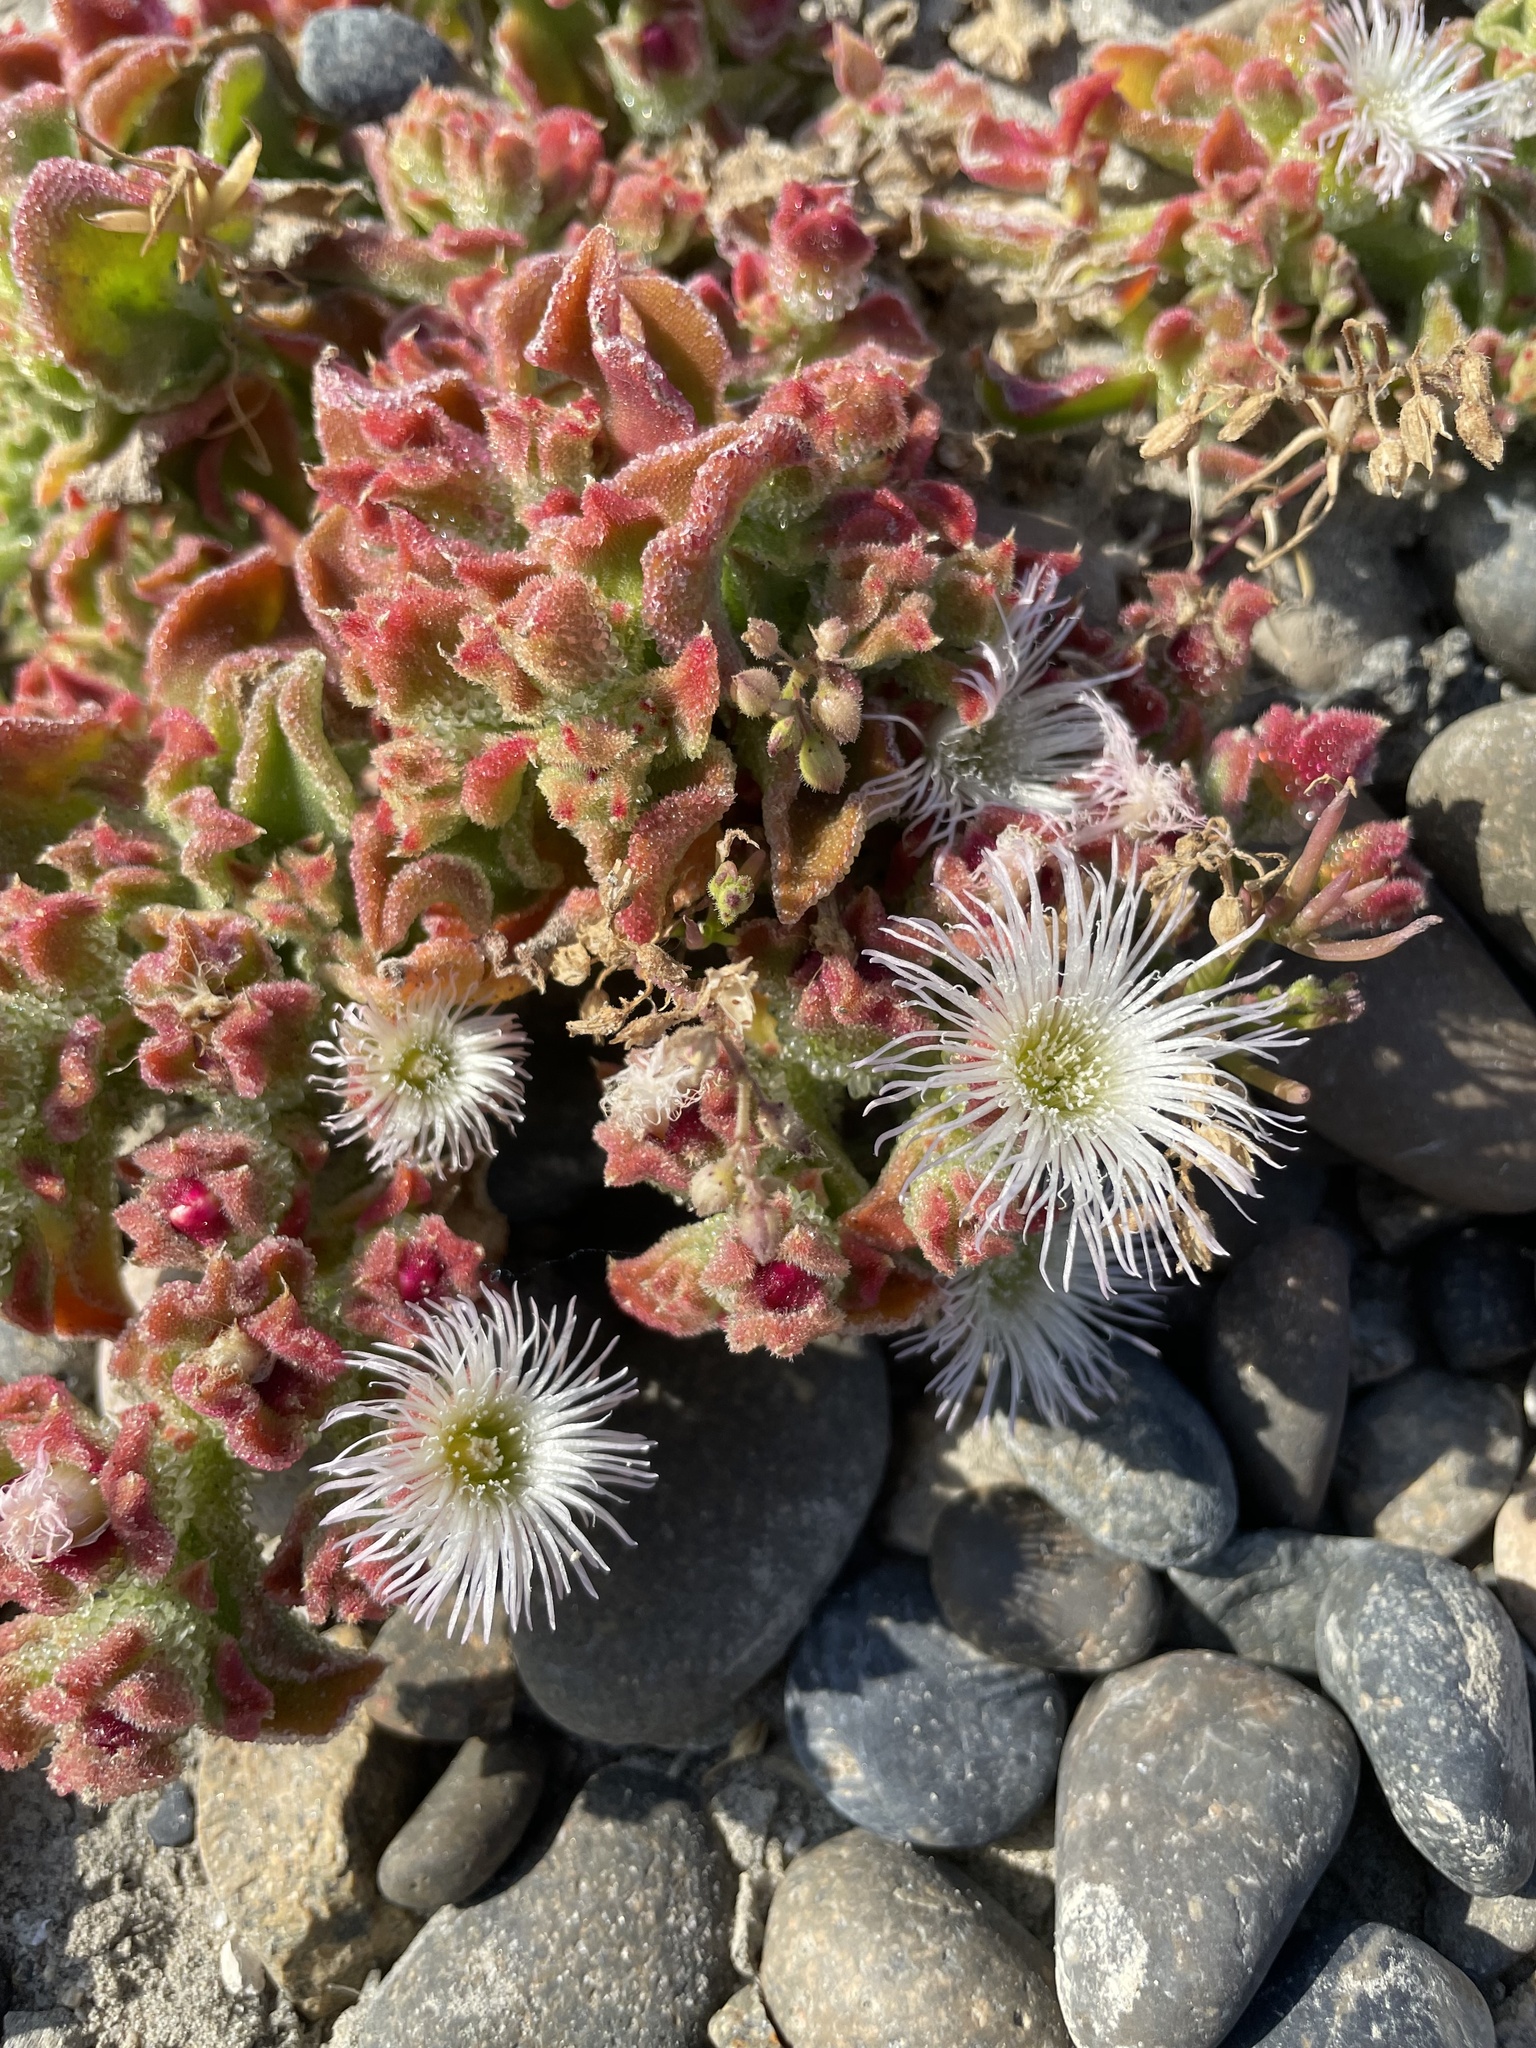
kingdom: Plantae
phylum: Tracheophyta
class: Magnoliopsida
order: Caryophyllales
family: Aizoaceae
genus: Mesembryanthemum
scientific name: Mesembryanthemum crystallinum
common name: Common iceplant
